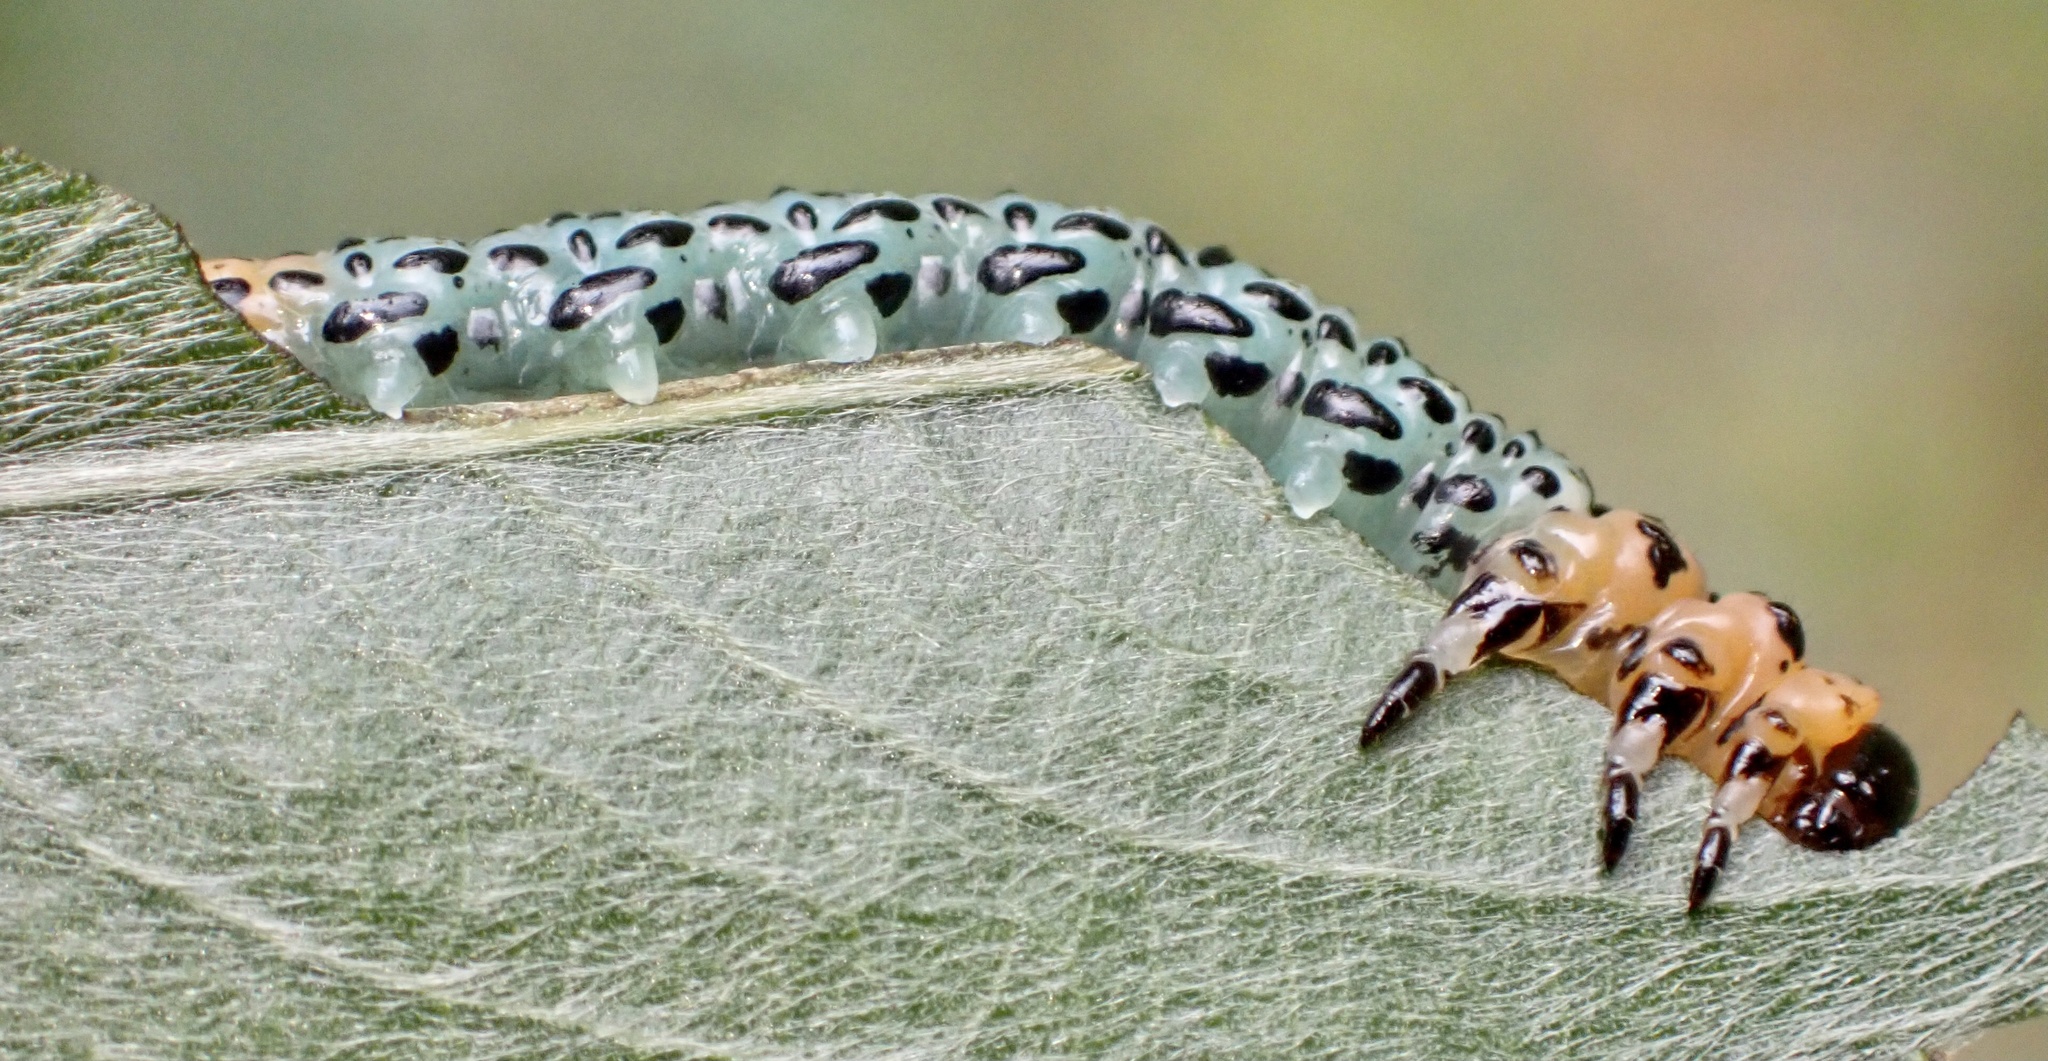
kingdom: Animalia
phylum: Arthropoda
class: Insecta
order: Hymenoptera
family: Tenthredinidae
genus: Nematus
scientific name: Nematus salicis
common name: Willow sawfly
